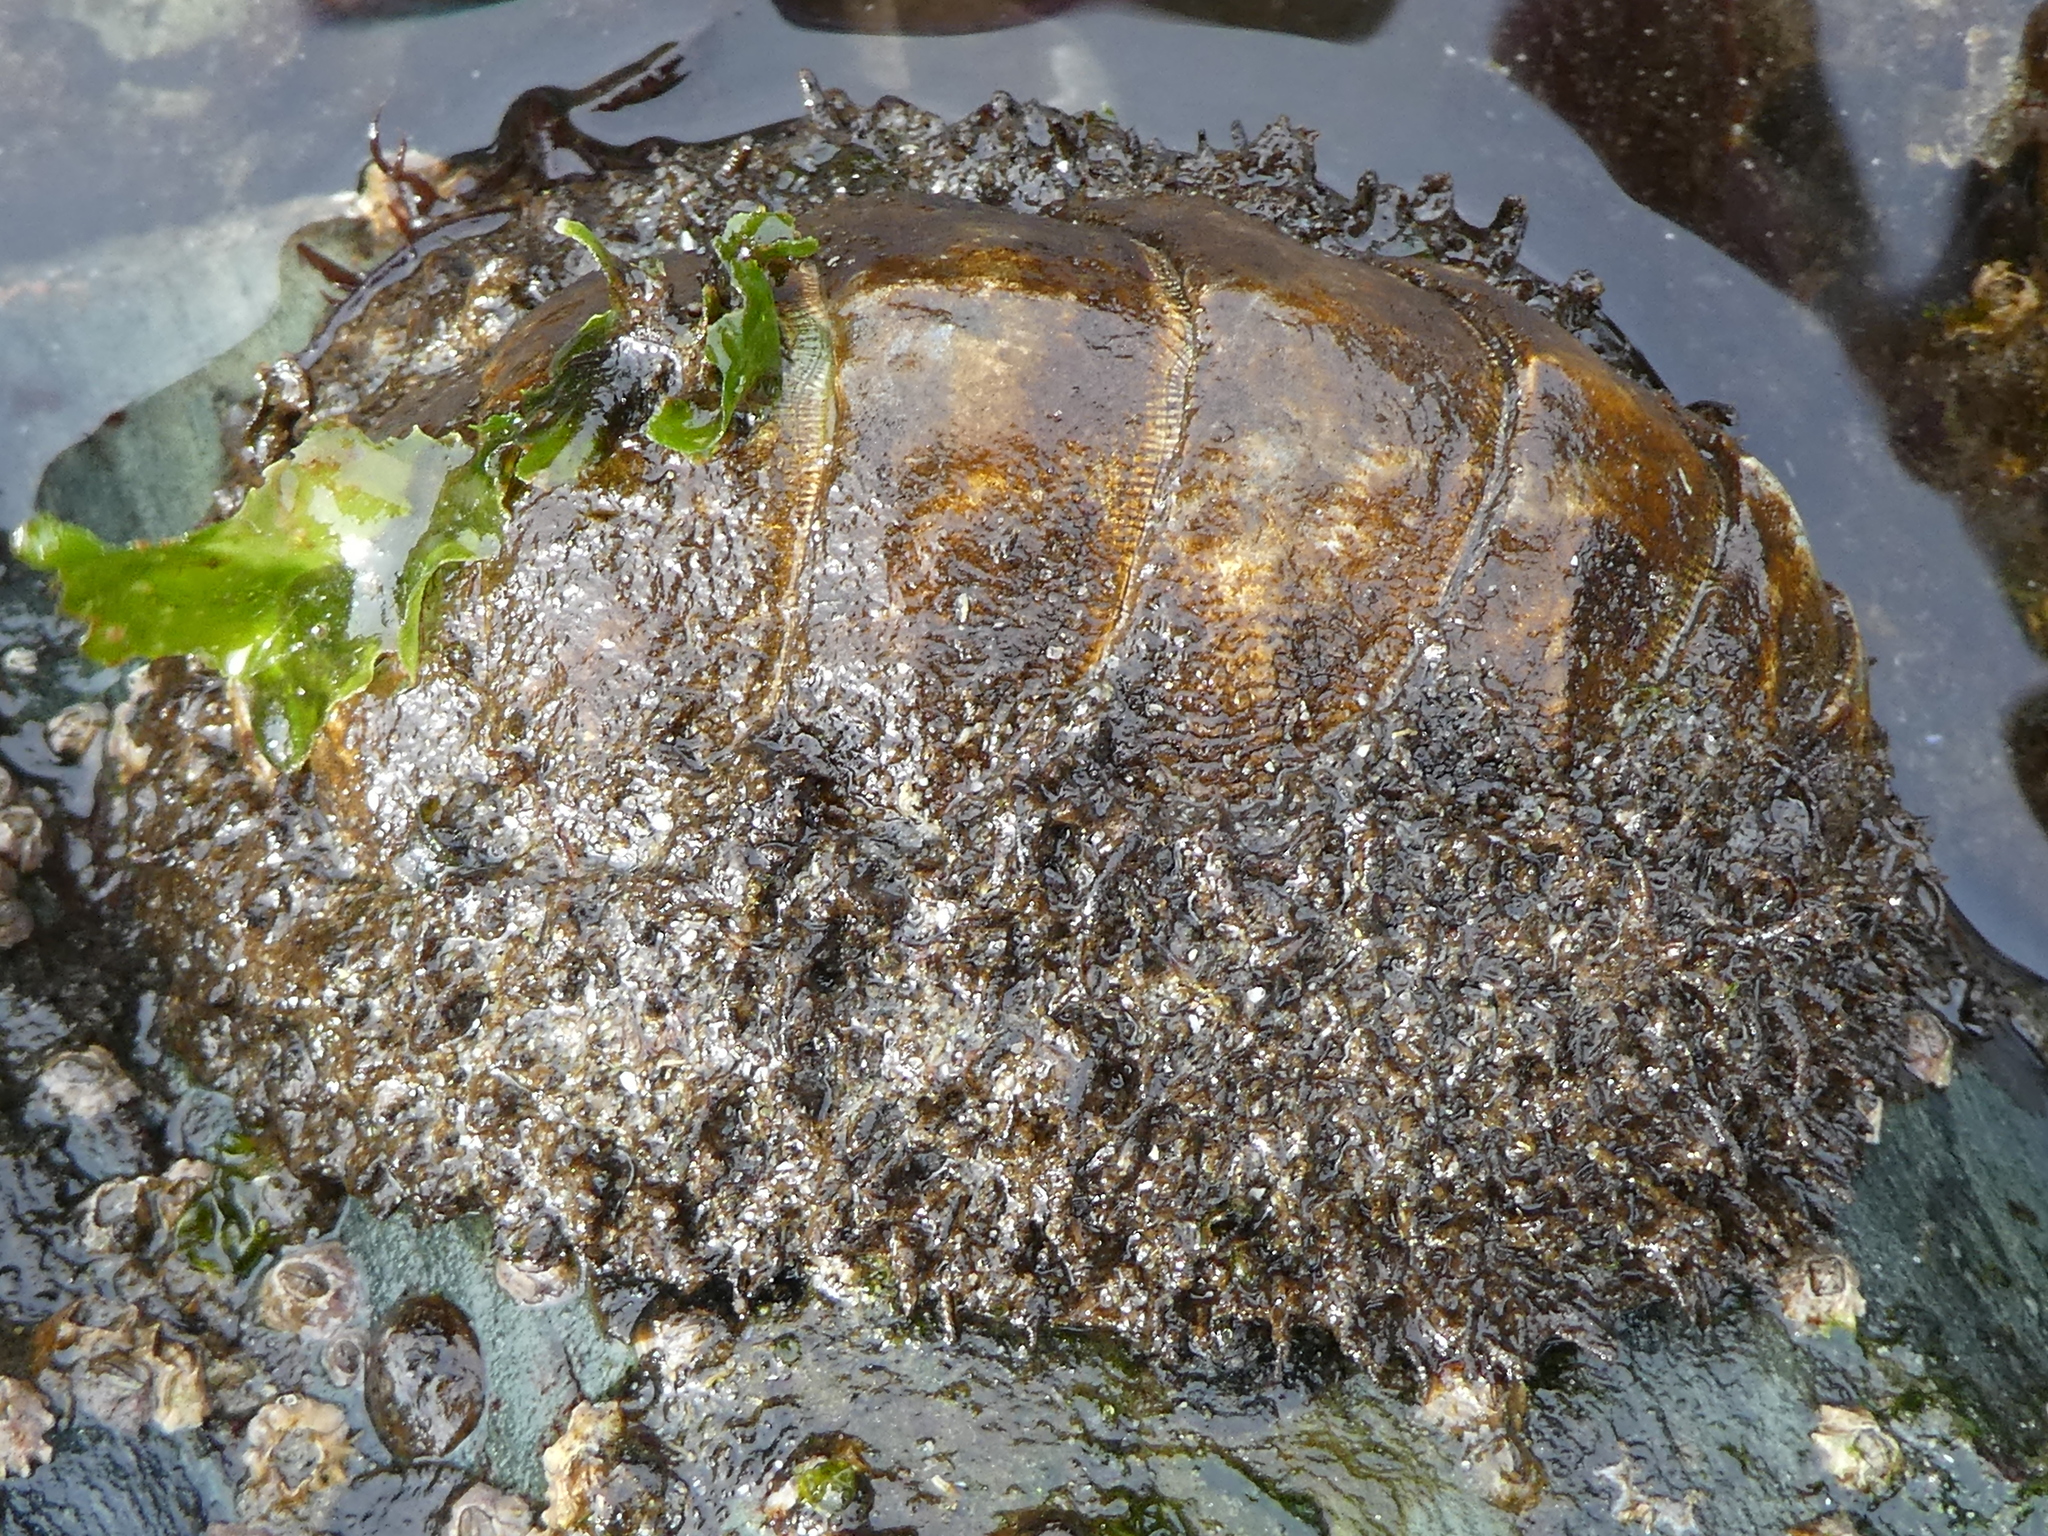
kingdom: Animalia
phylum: Mollusca
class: Polyplacophora
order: Chitonida
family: Mopaliidae
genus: Mopalia
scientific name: Mopalia muscosa
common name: Mossy chiton
